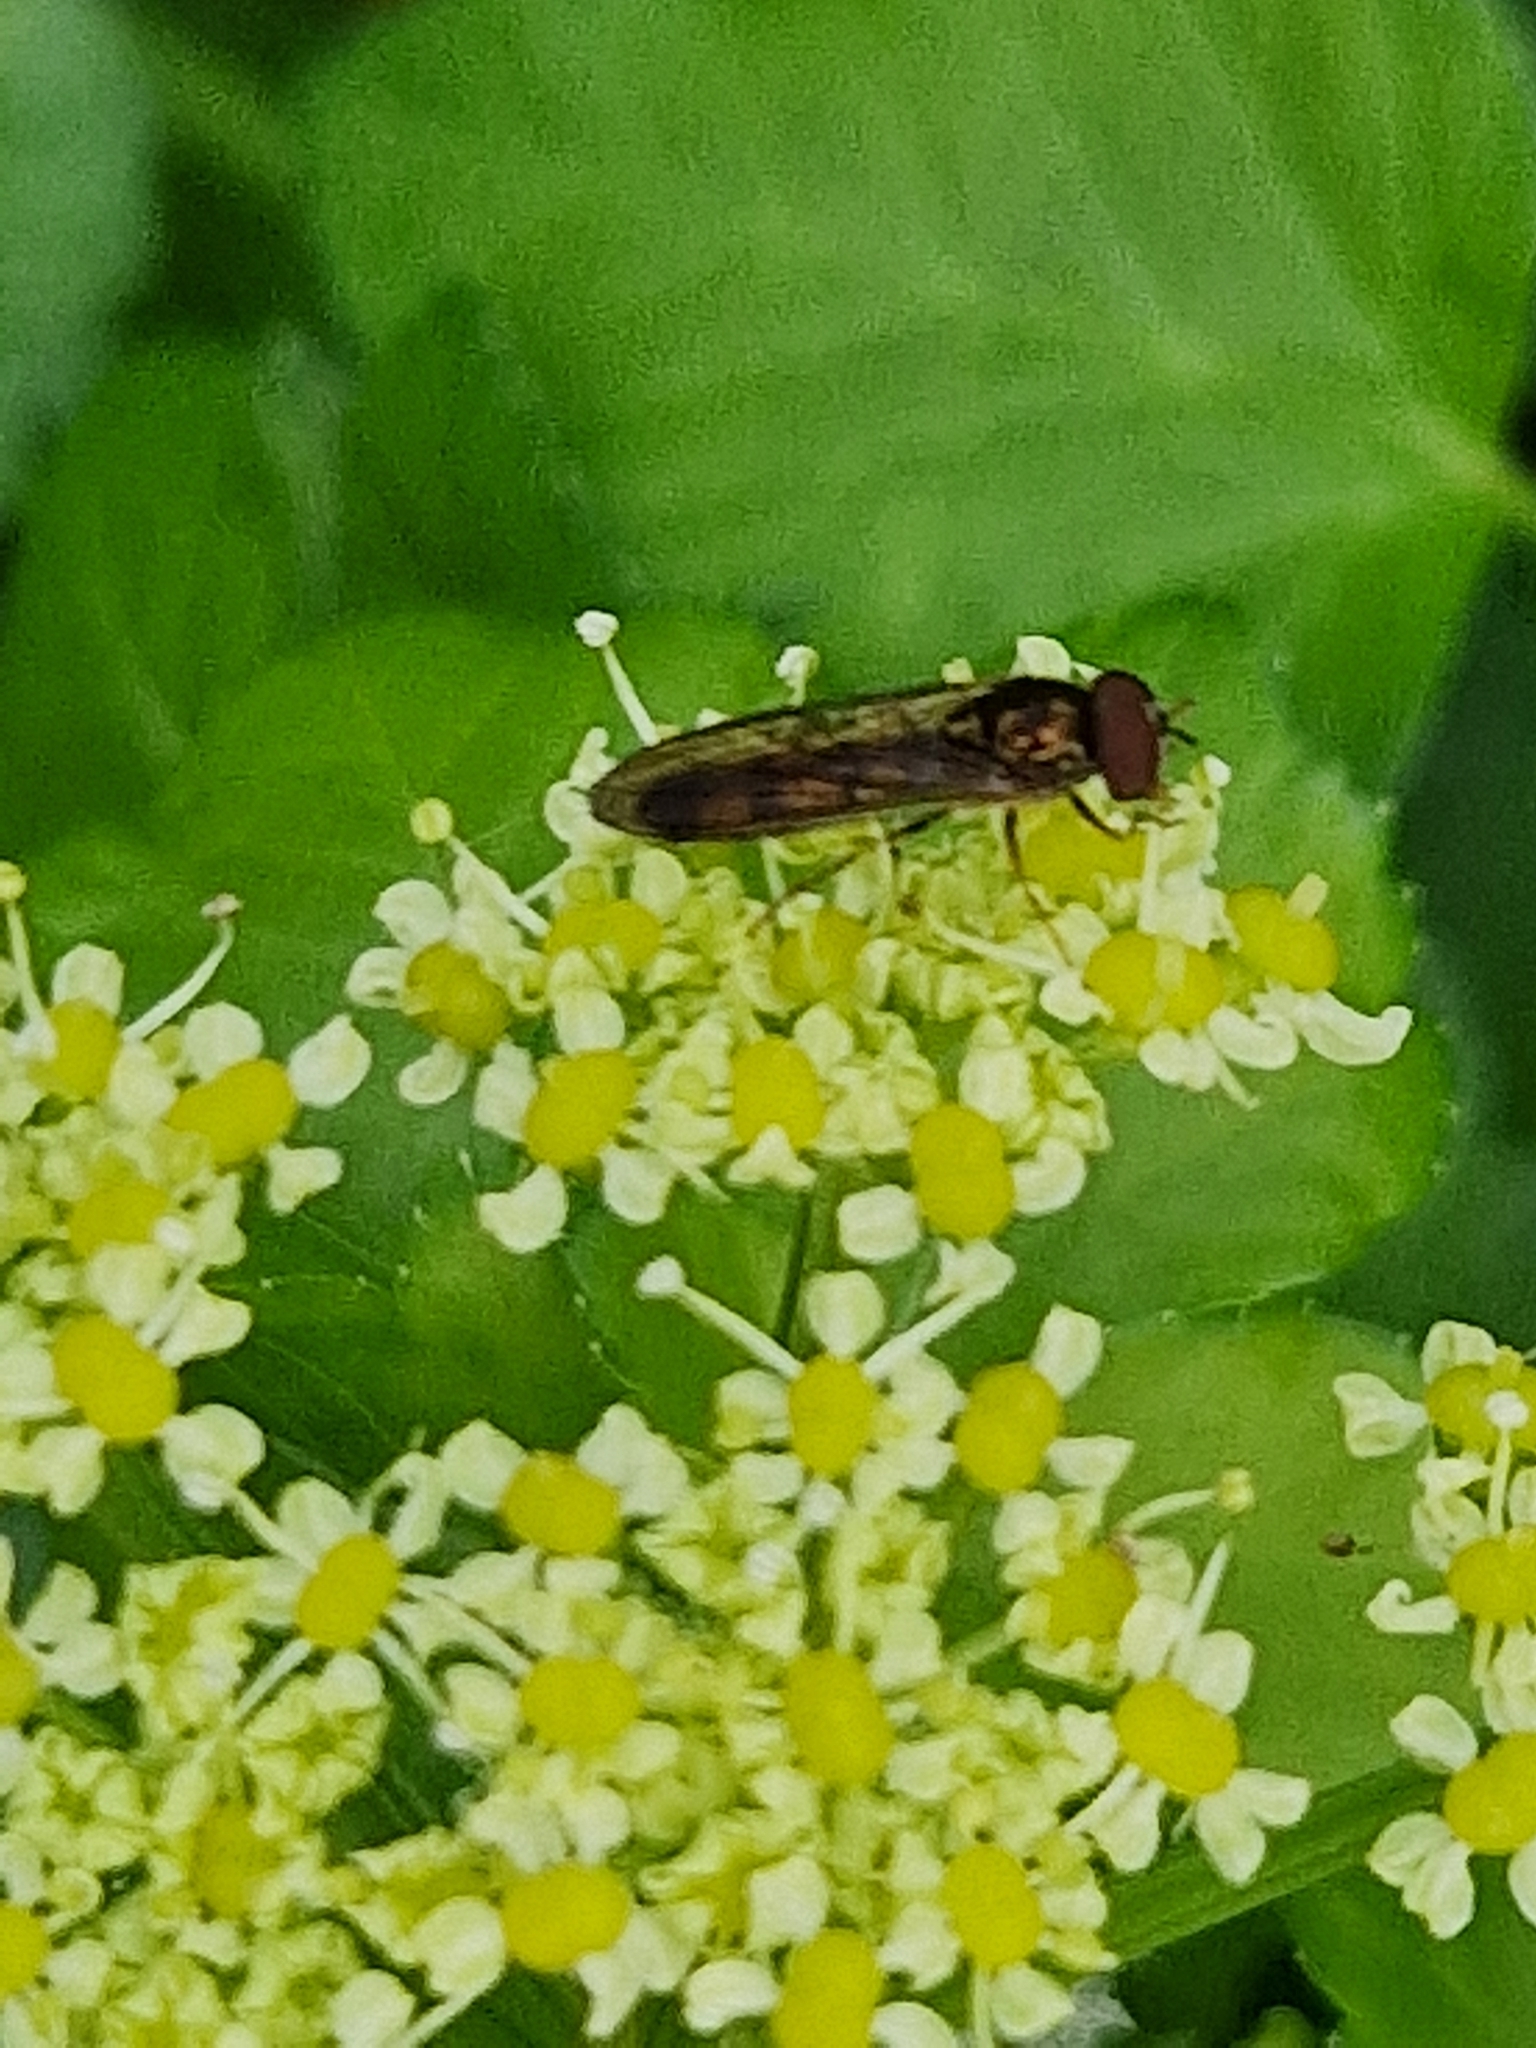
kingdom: Animalia
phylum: Arthropoda
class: Insecta
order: Diptera
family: Syrphidae
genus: Melanostoma
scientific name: Melanostoma scalare
